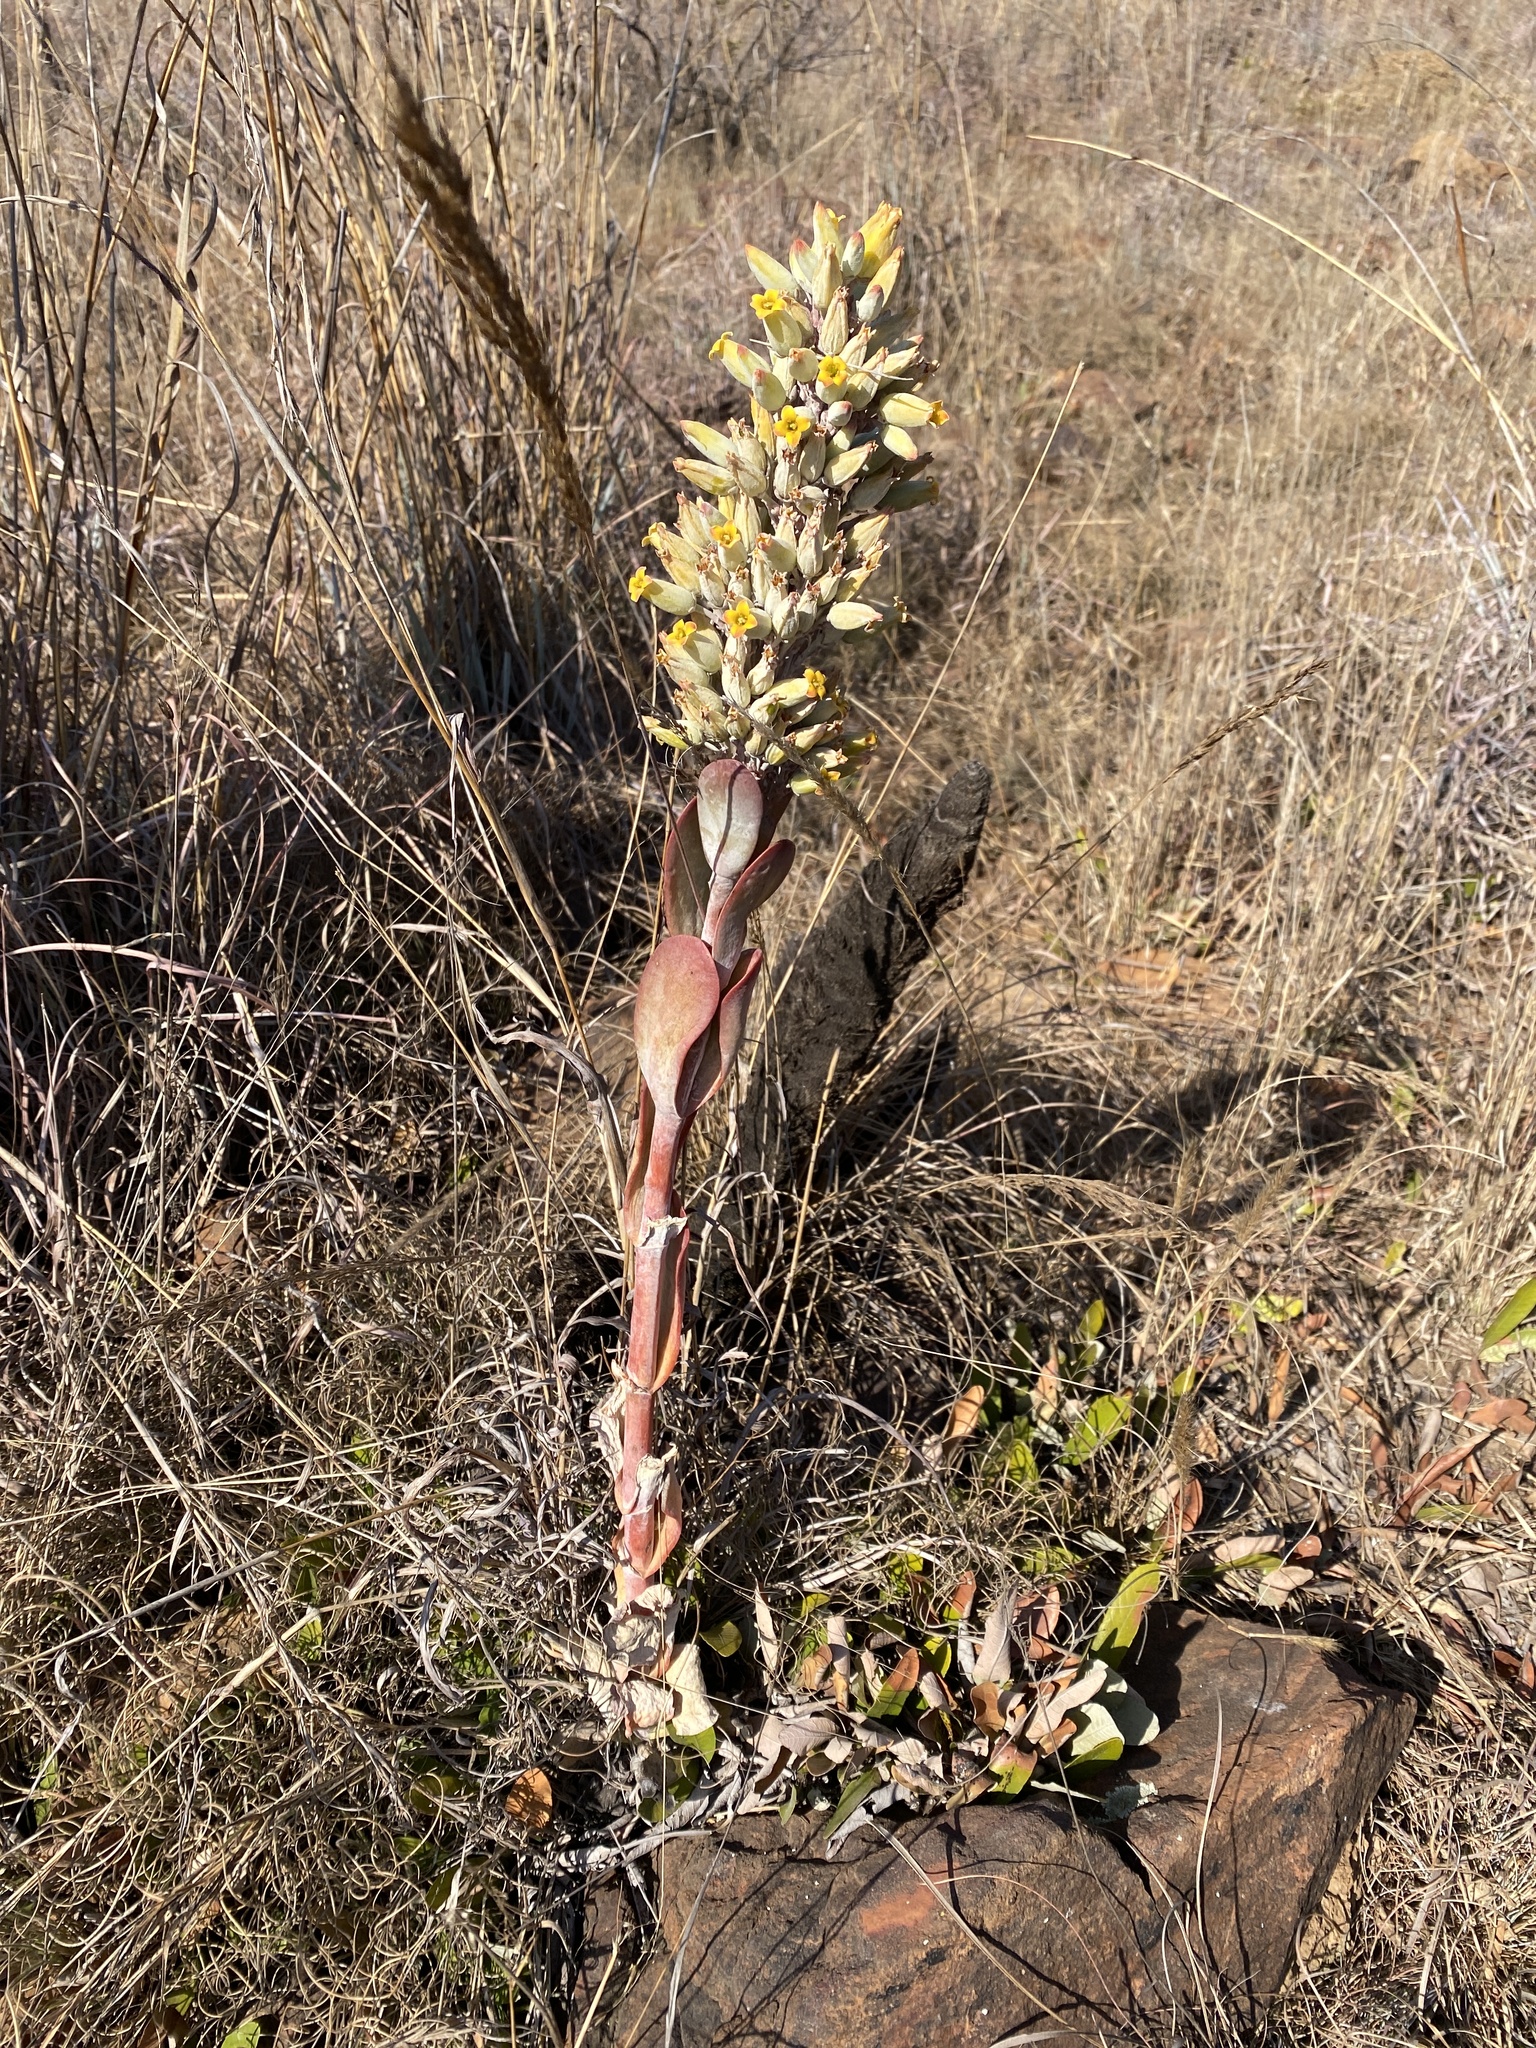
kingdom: Plantae
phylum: Tracheophyta
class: Magnoliopsida
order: Saxifragales
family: Crassulaceae
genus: Kalanchoe
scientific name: Kalanchoe thyrsiflora
